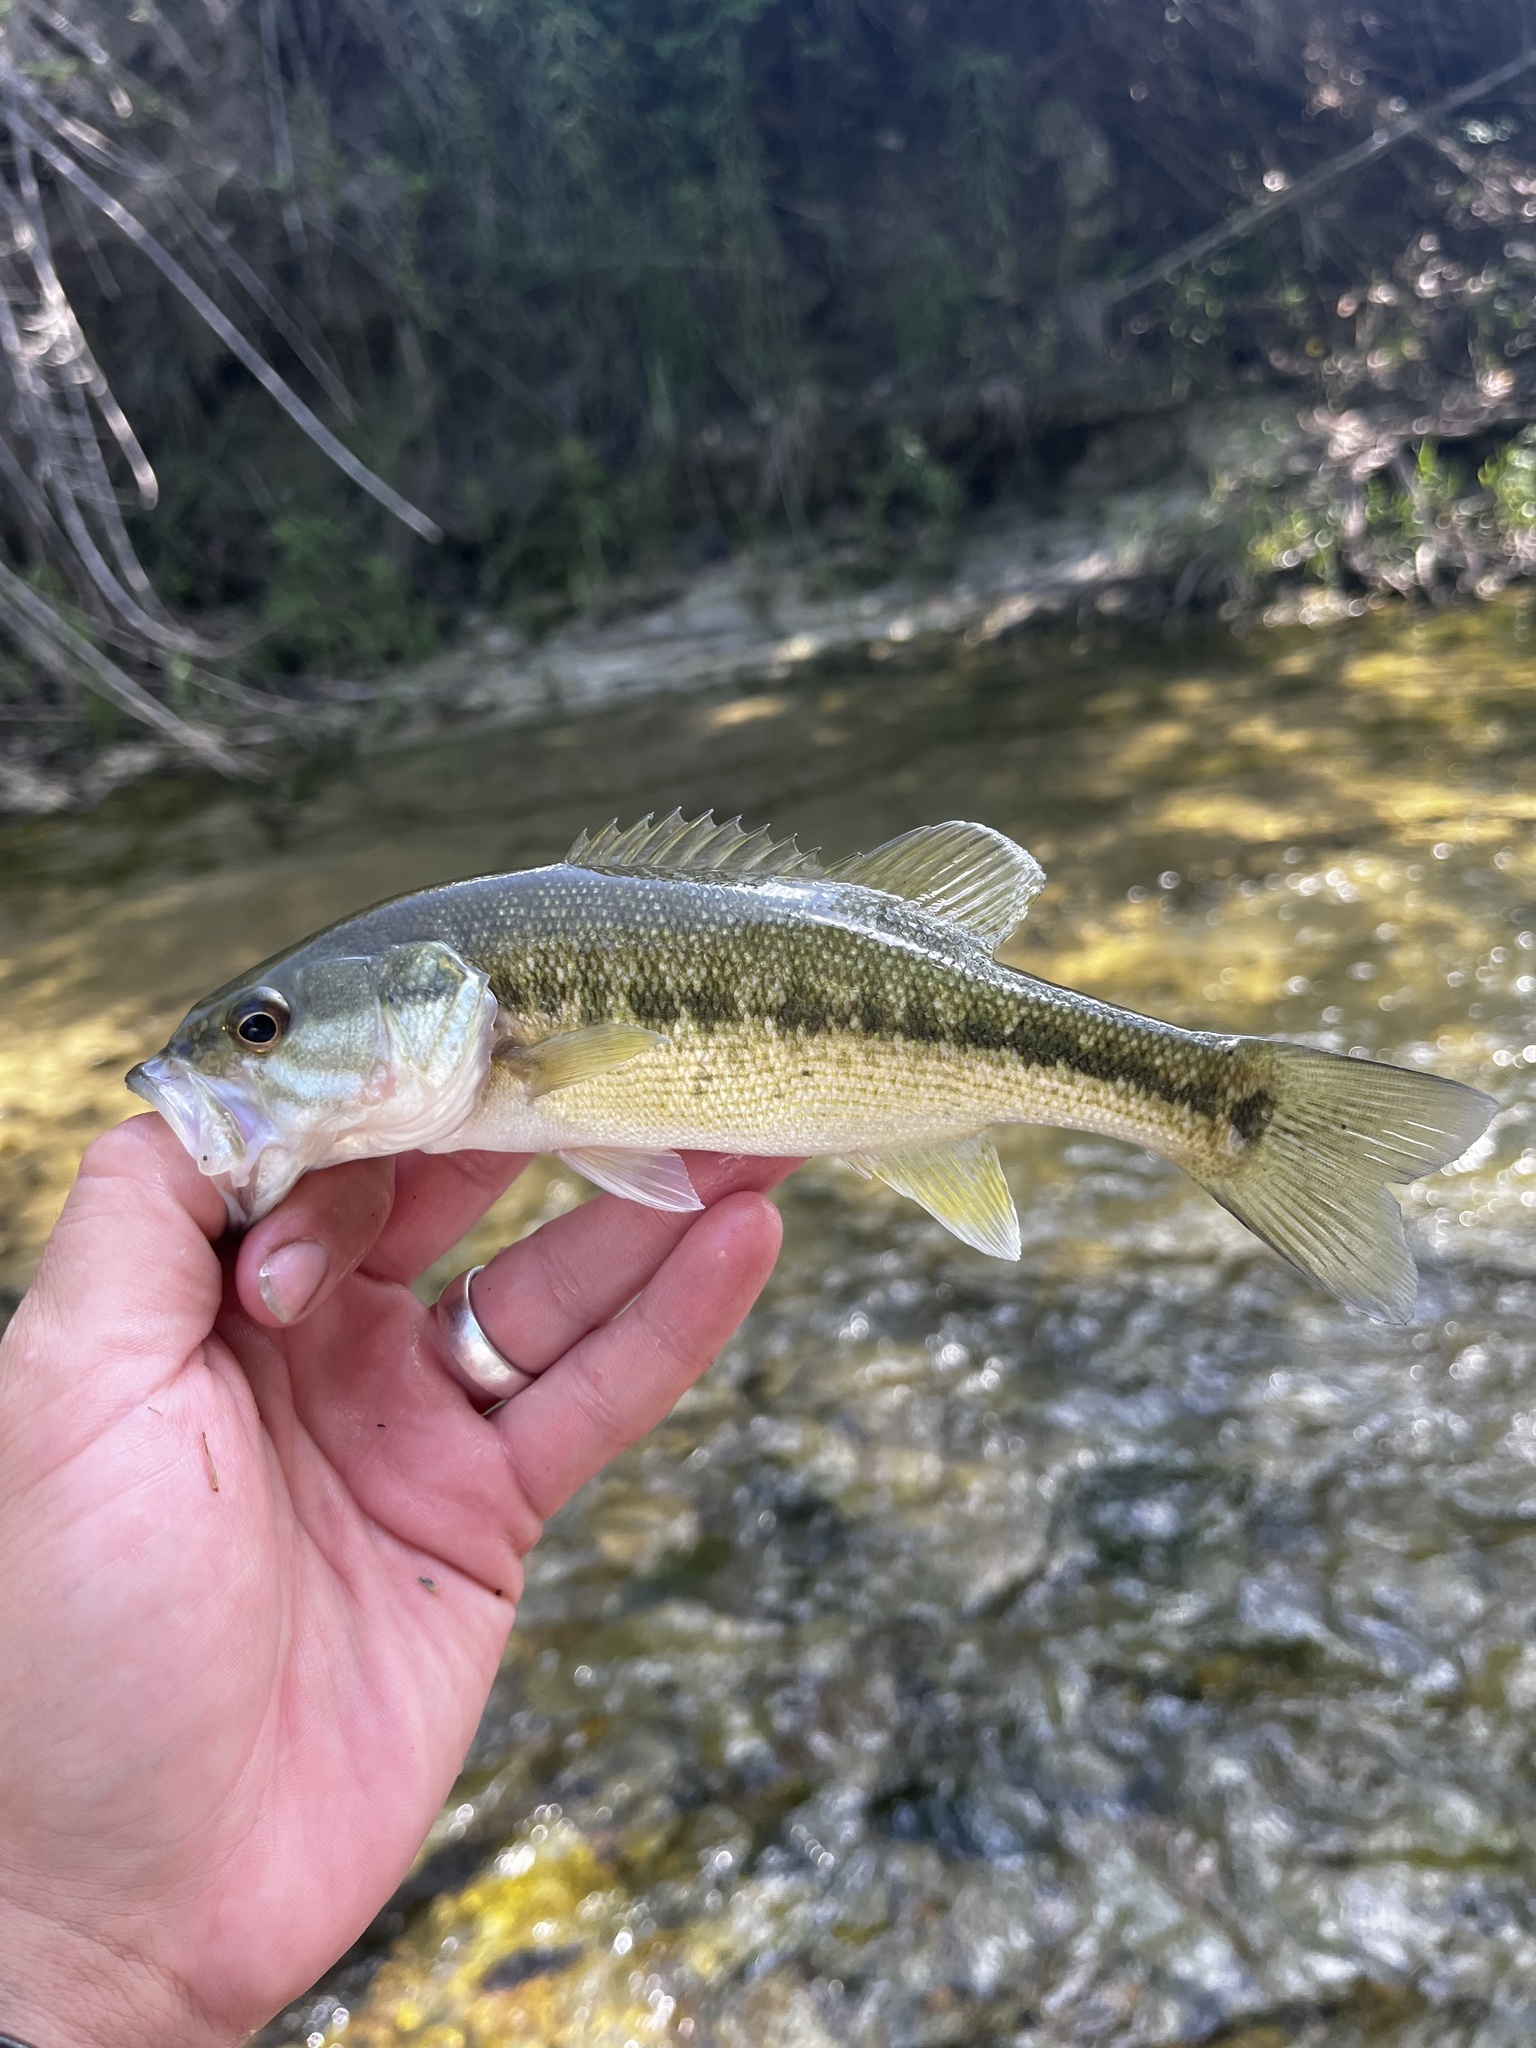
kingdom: Animalia
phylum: Chordata
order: Perciformes
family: Centrarchidae
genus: Micropterus
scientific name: Micropterus treculii
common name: Guadalupe bass
